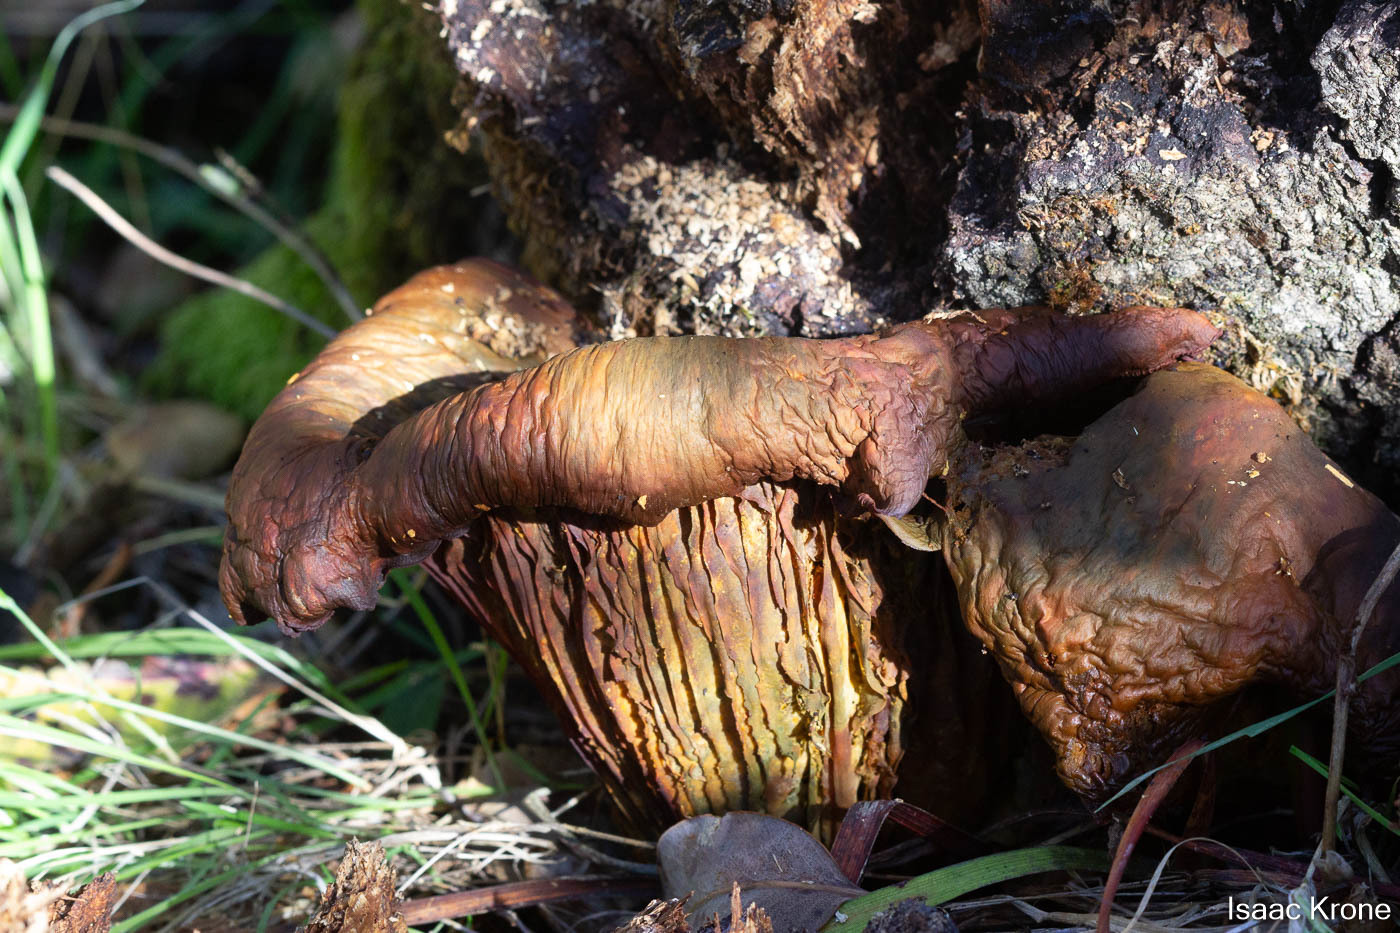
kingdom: Fungi
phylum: Basidiomycota
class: Agaricomycetes
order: Agaricales
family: Omphalotaceae
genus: Omphalotus
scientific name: Omphalotus olivascens
